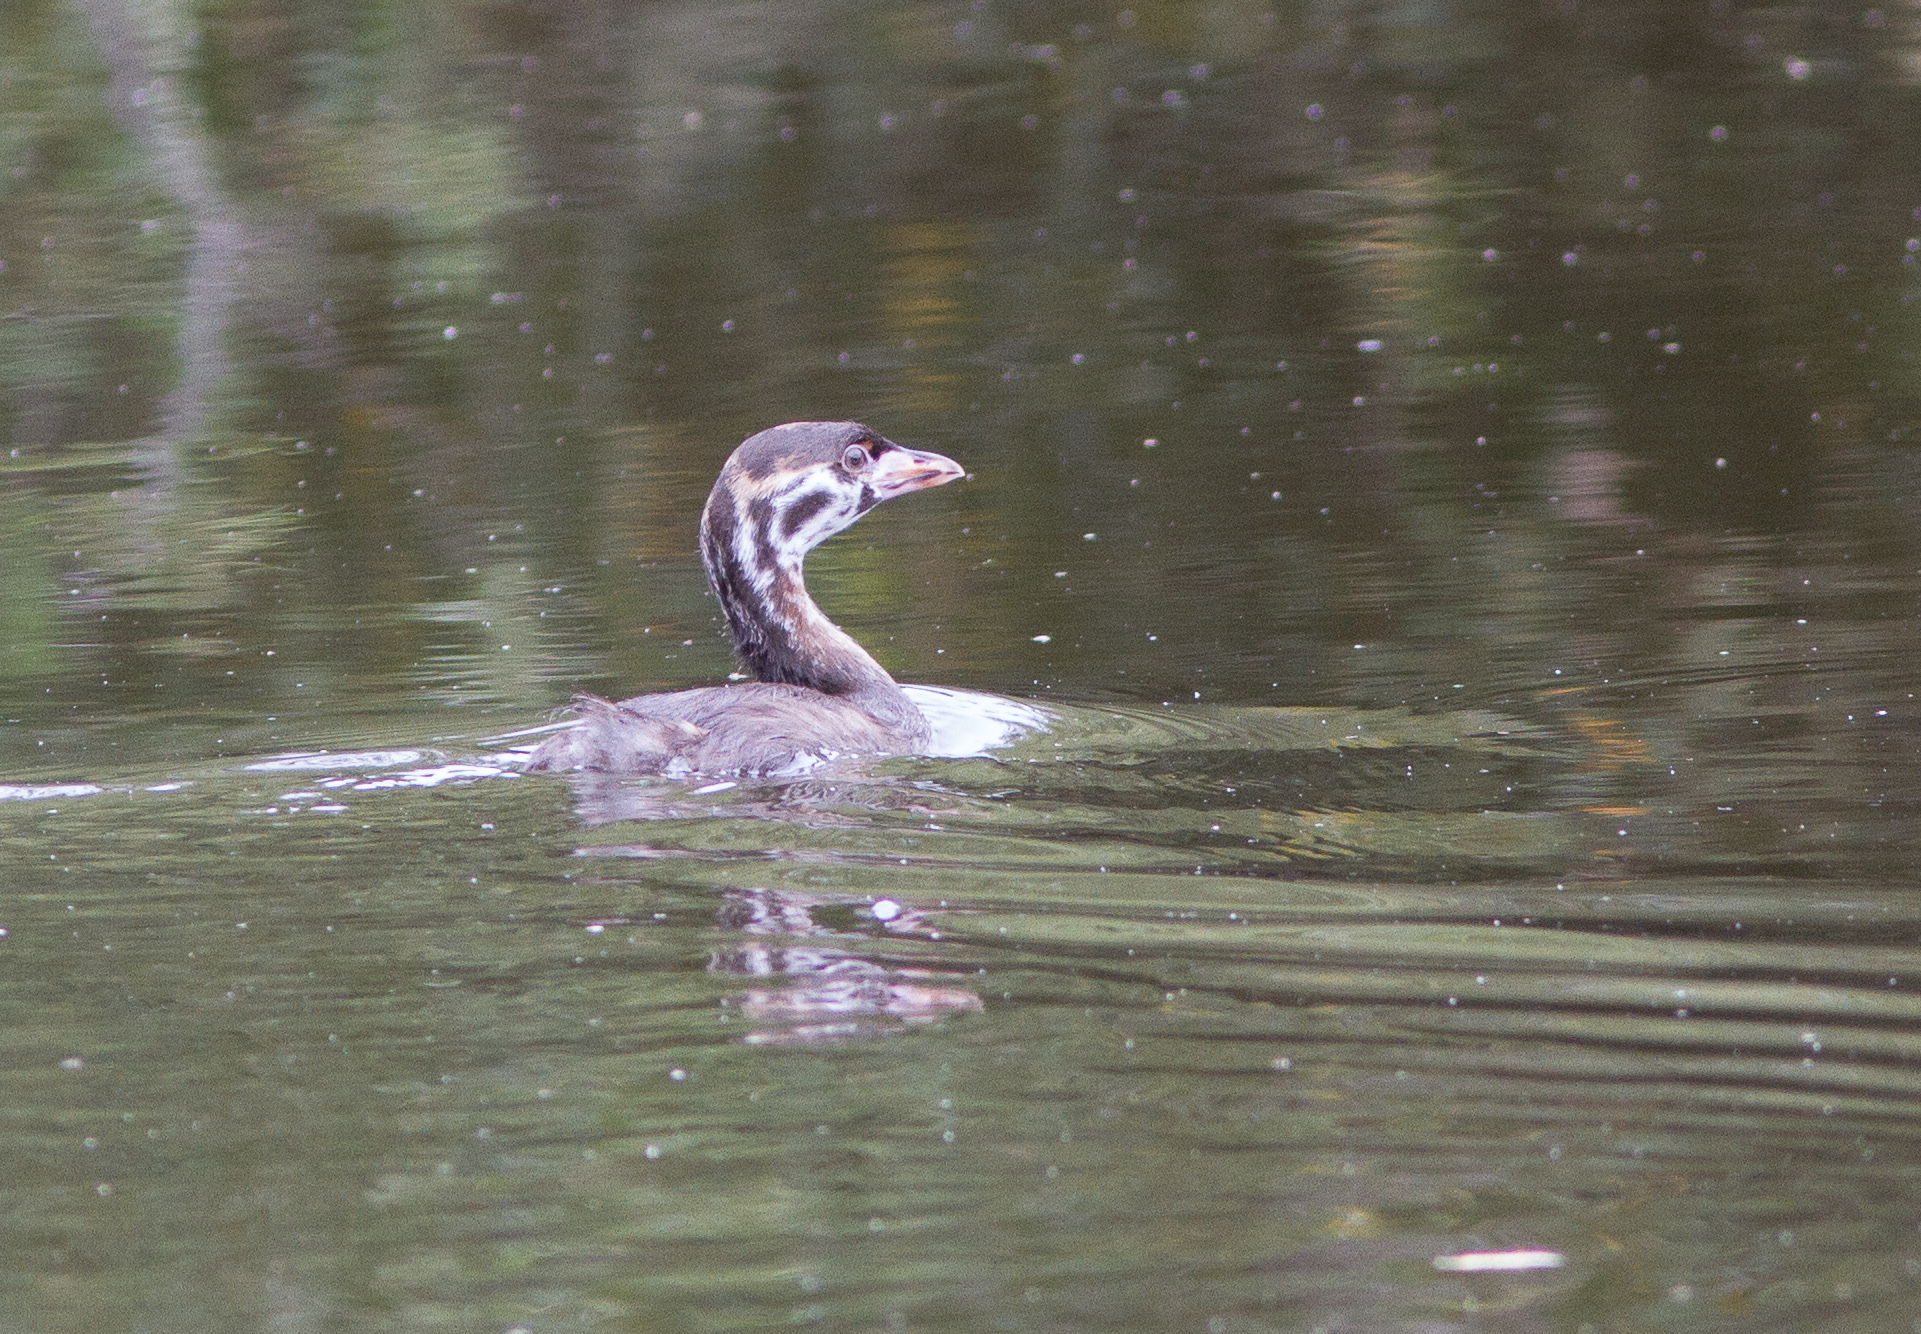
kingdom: Animalia
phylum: Chordata
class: Aves
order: Podicipediformes
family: Podicipedidae
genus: Podilymbus
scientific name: Podilymbus podiceps
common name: Pied-billed grebe
